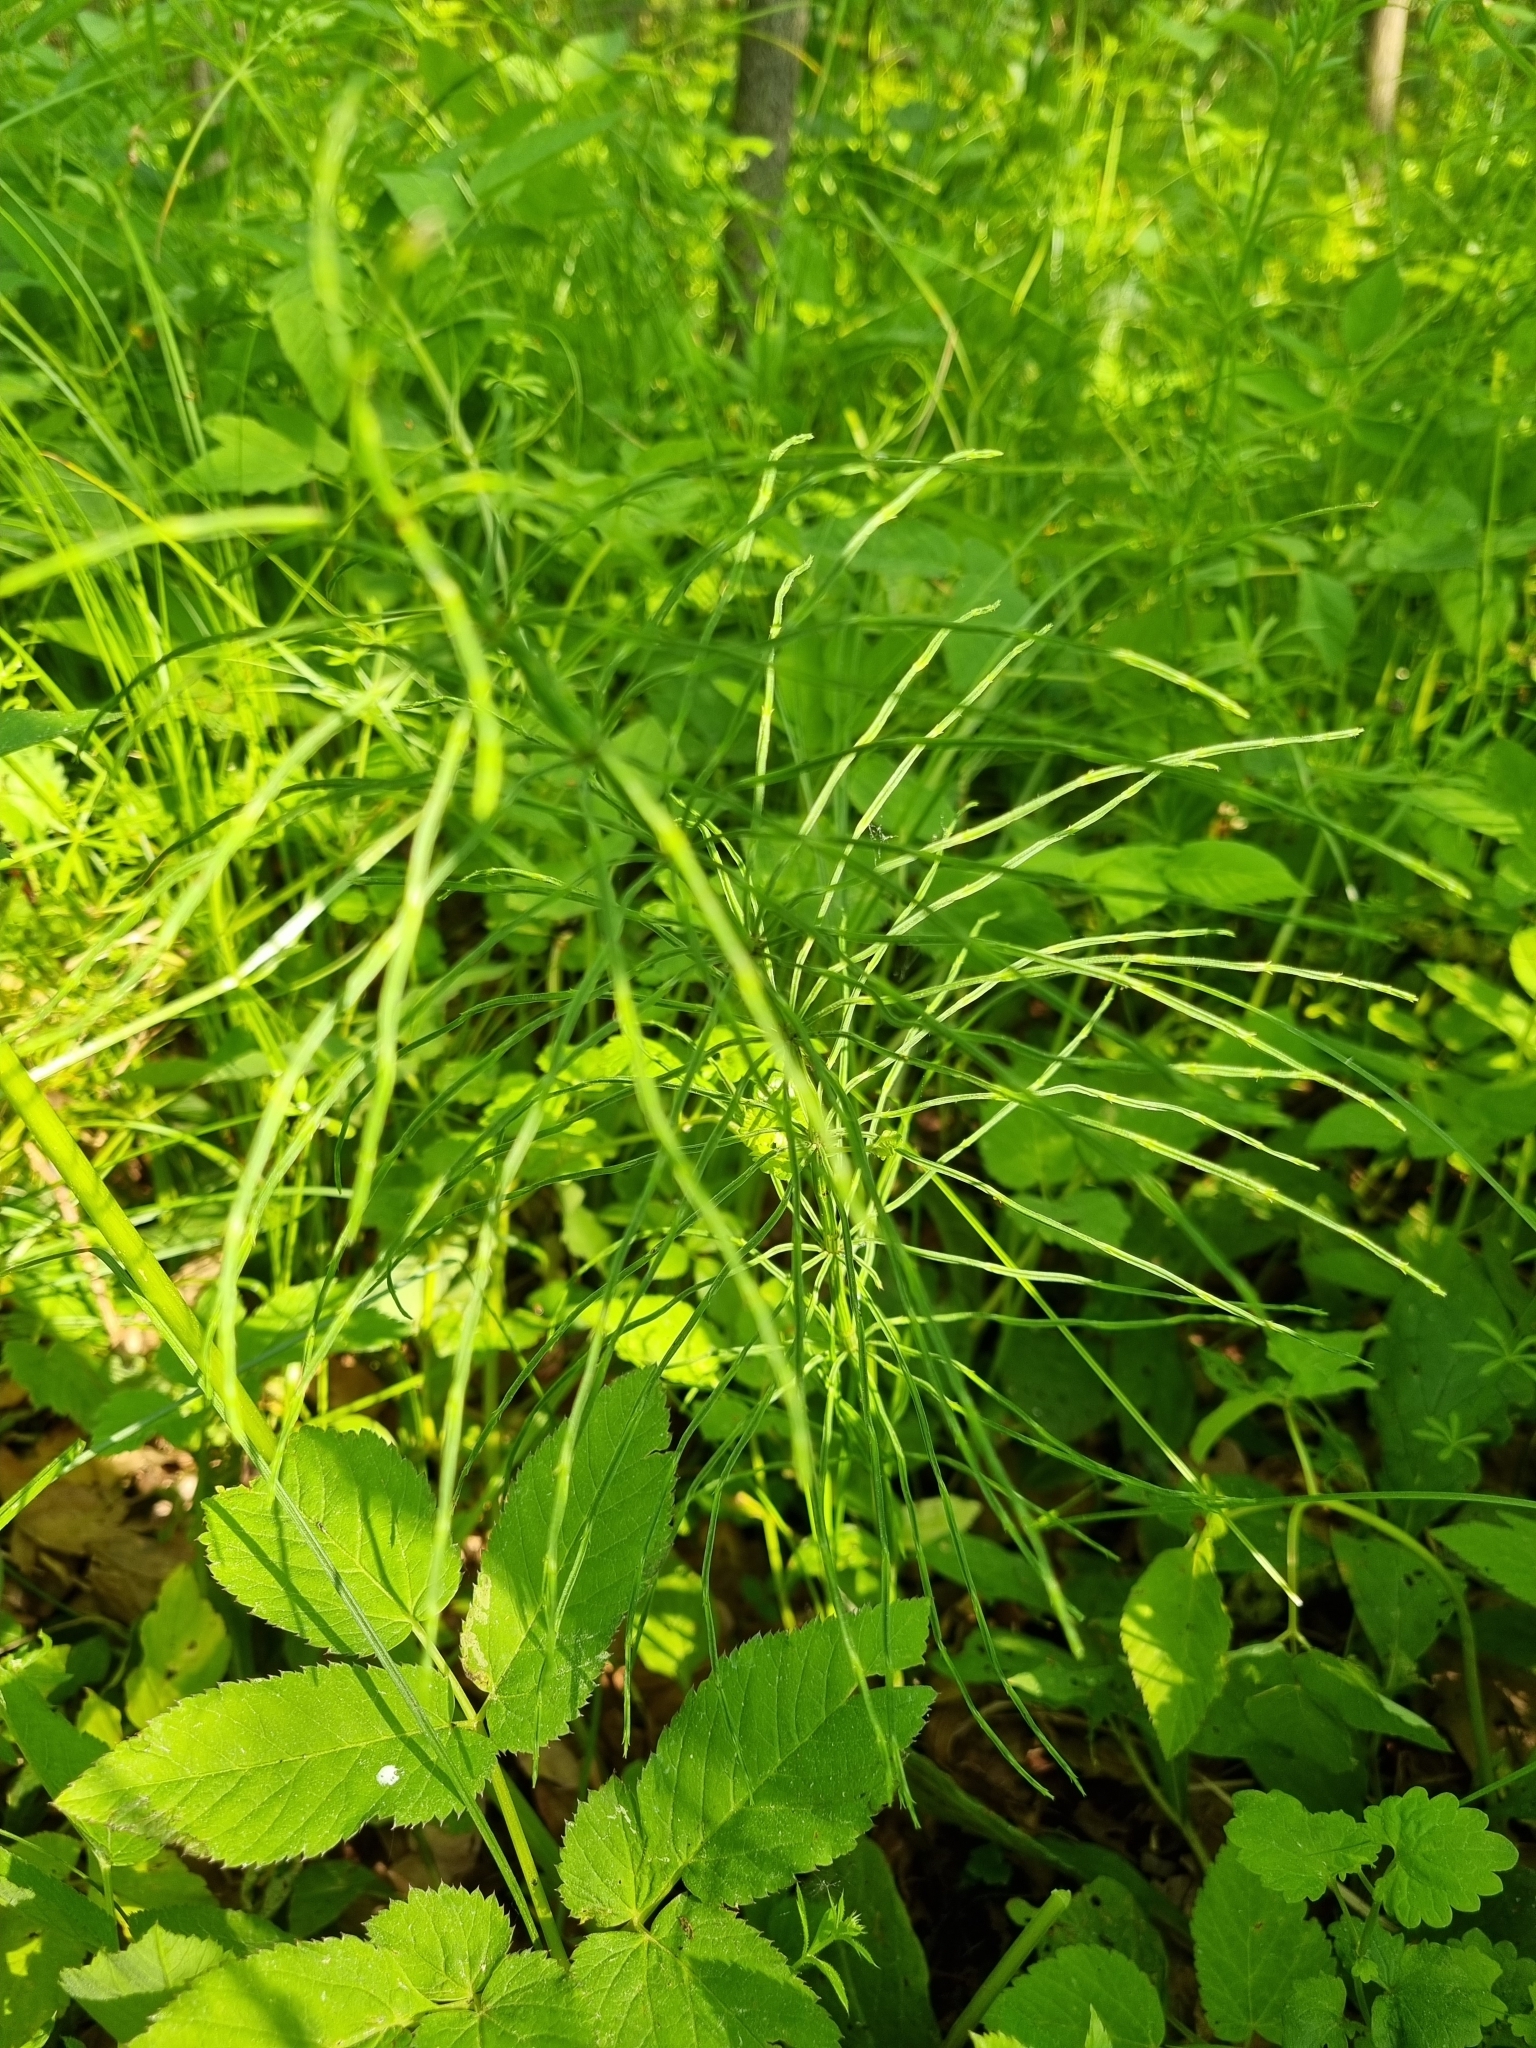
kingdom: Plantae
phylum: Tracheophyta
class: Polypodiopsida
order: Equisetales
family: Equisetaceae
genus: Equisetum
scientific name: Equisetum arvense
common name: Field horsetail
